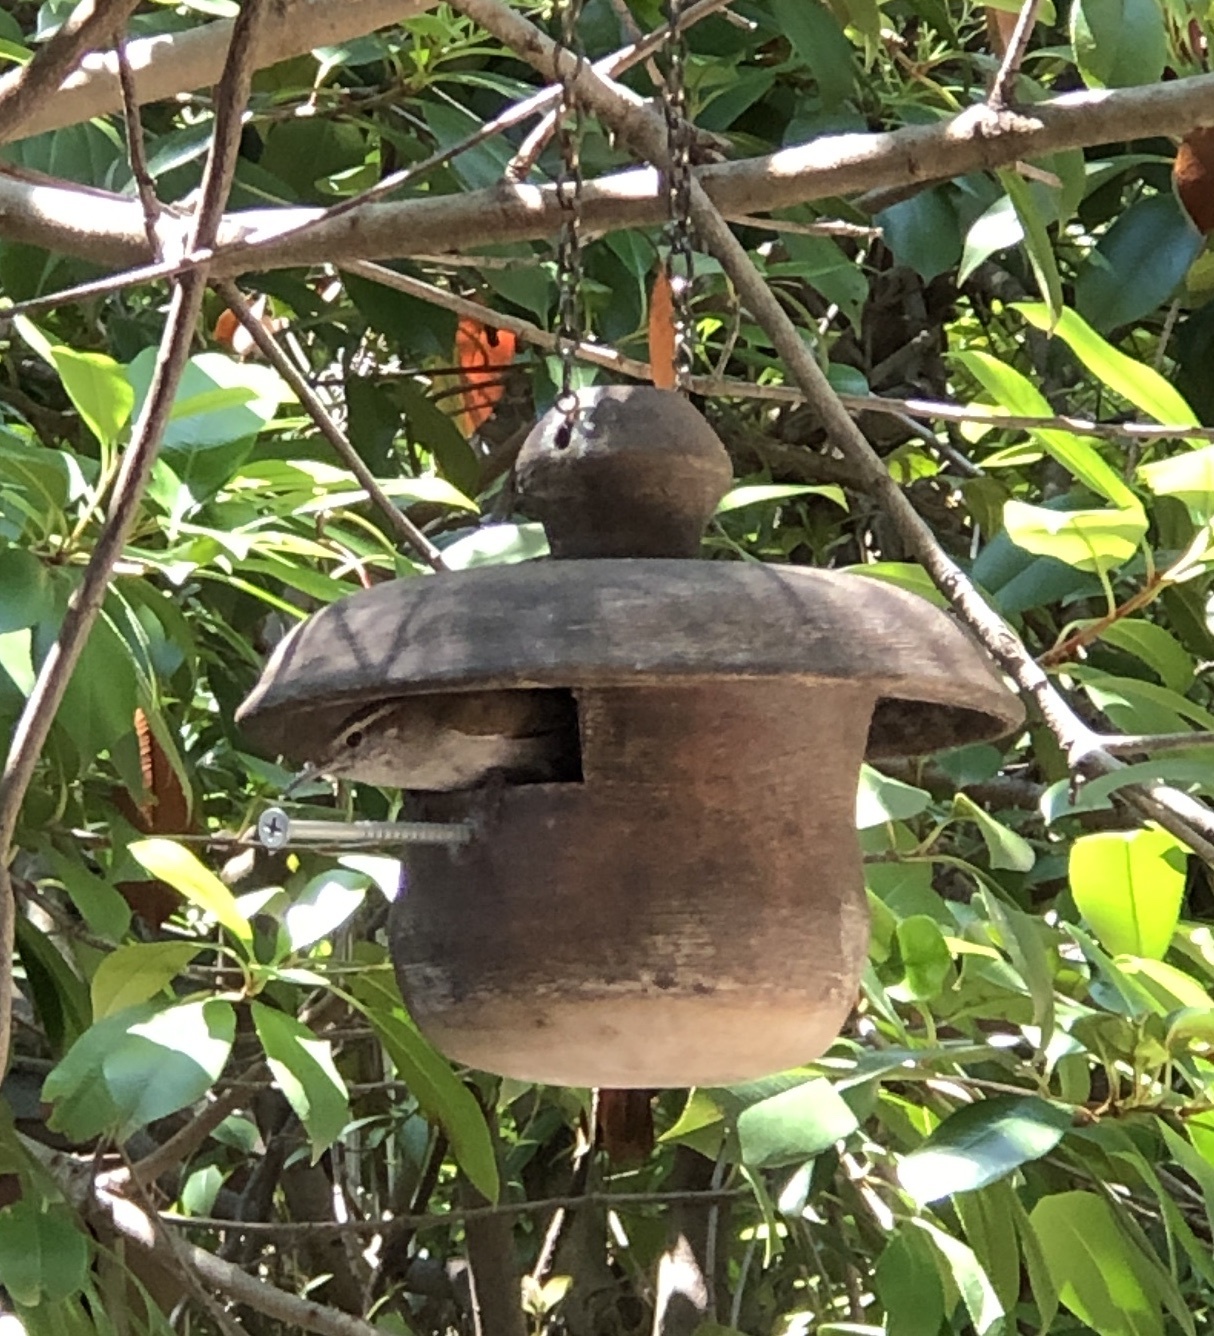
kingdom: Animalia
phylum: Chordata
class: Aves
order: Passeriformes
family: Troglodytidae
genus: Thryomanes
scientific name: Thryomanes bewickii
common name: Bewick's wren
